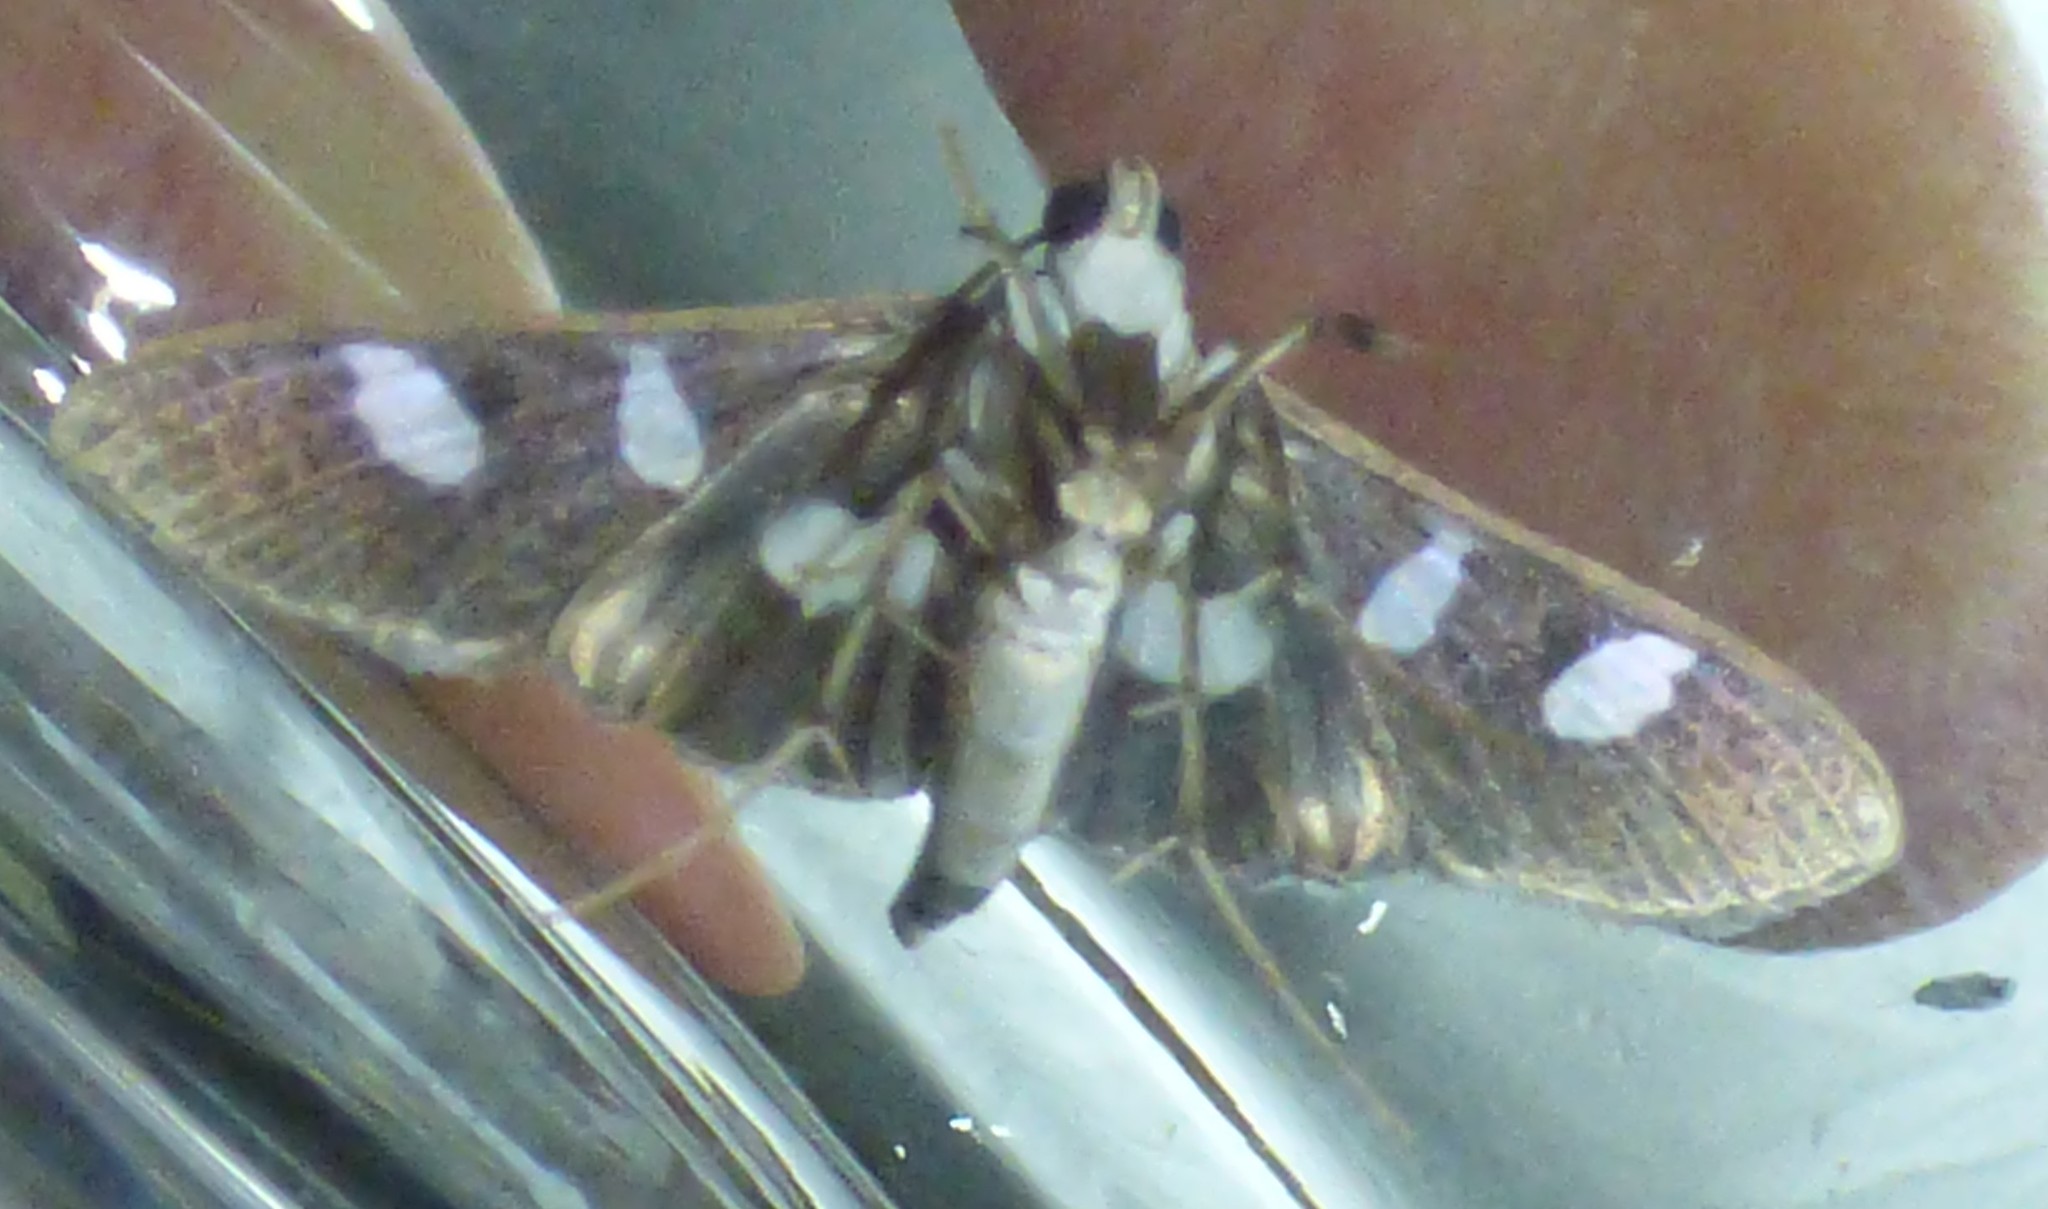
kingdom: Animalia
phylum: Arthropoda
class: Insecta
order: Lepidoptera
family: Crambidae
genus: Desmia
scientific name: Desmia funeralis
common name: Grape leaf folder moth
